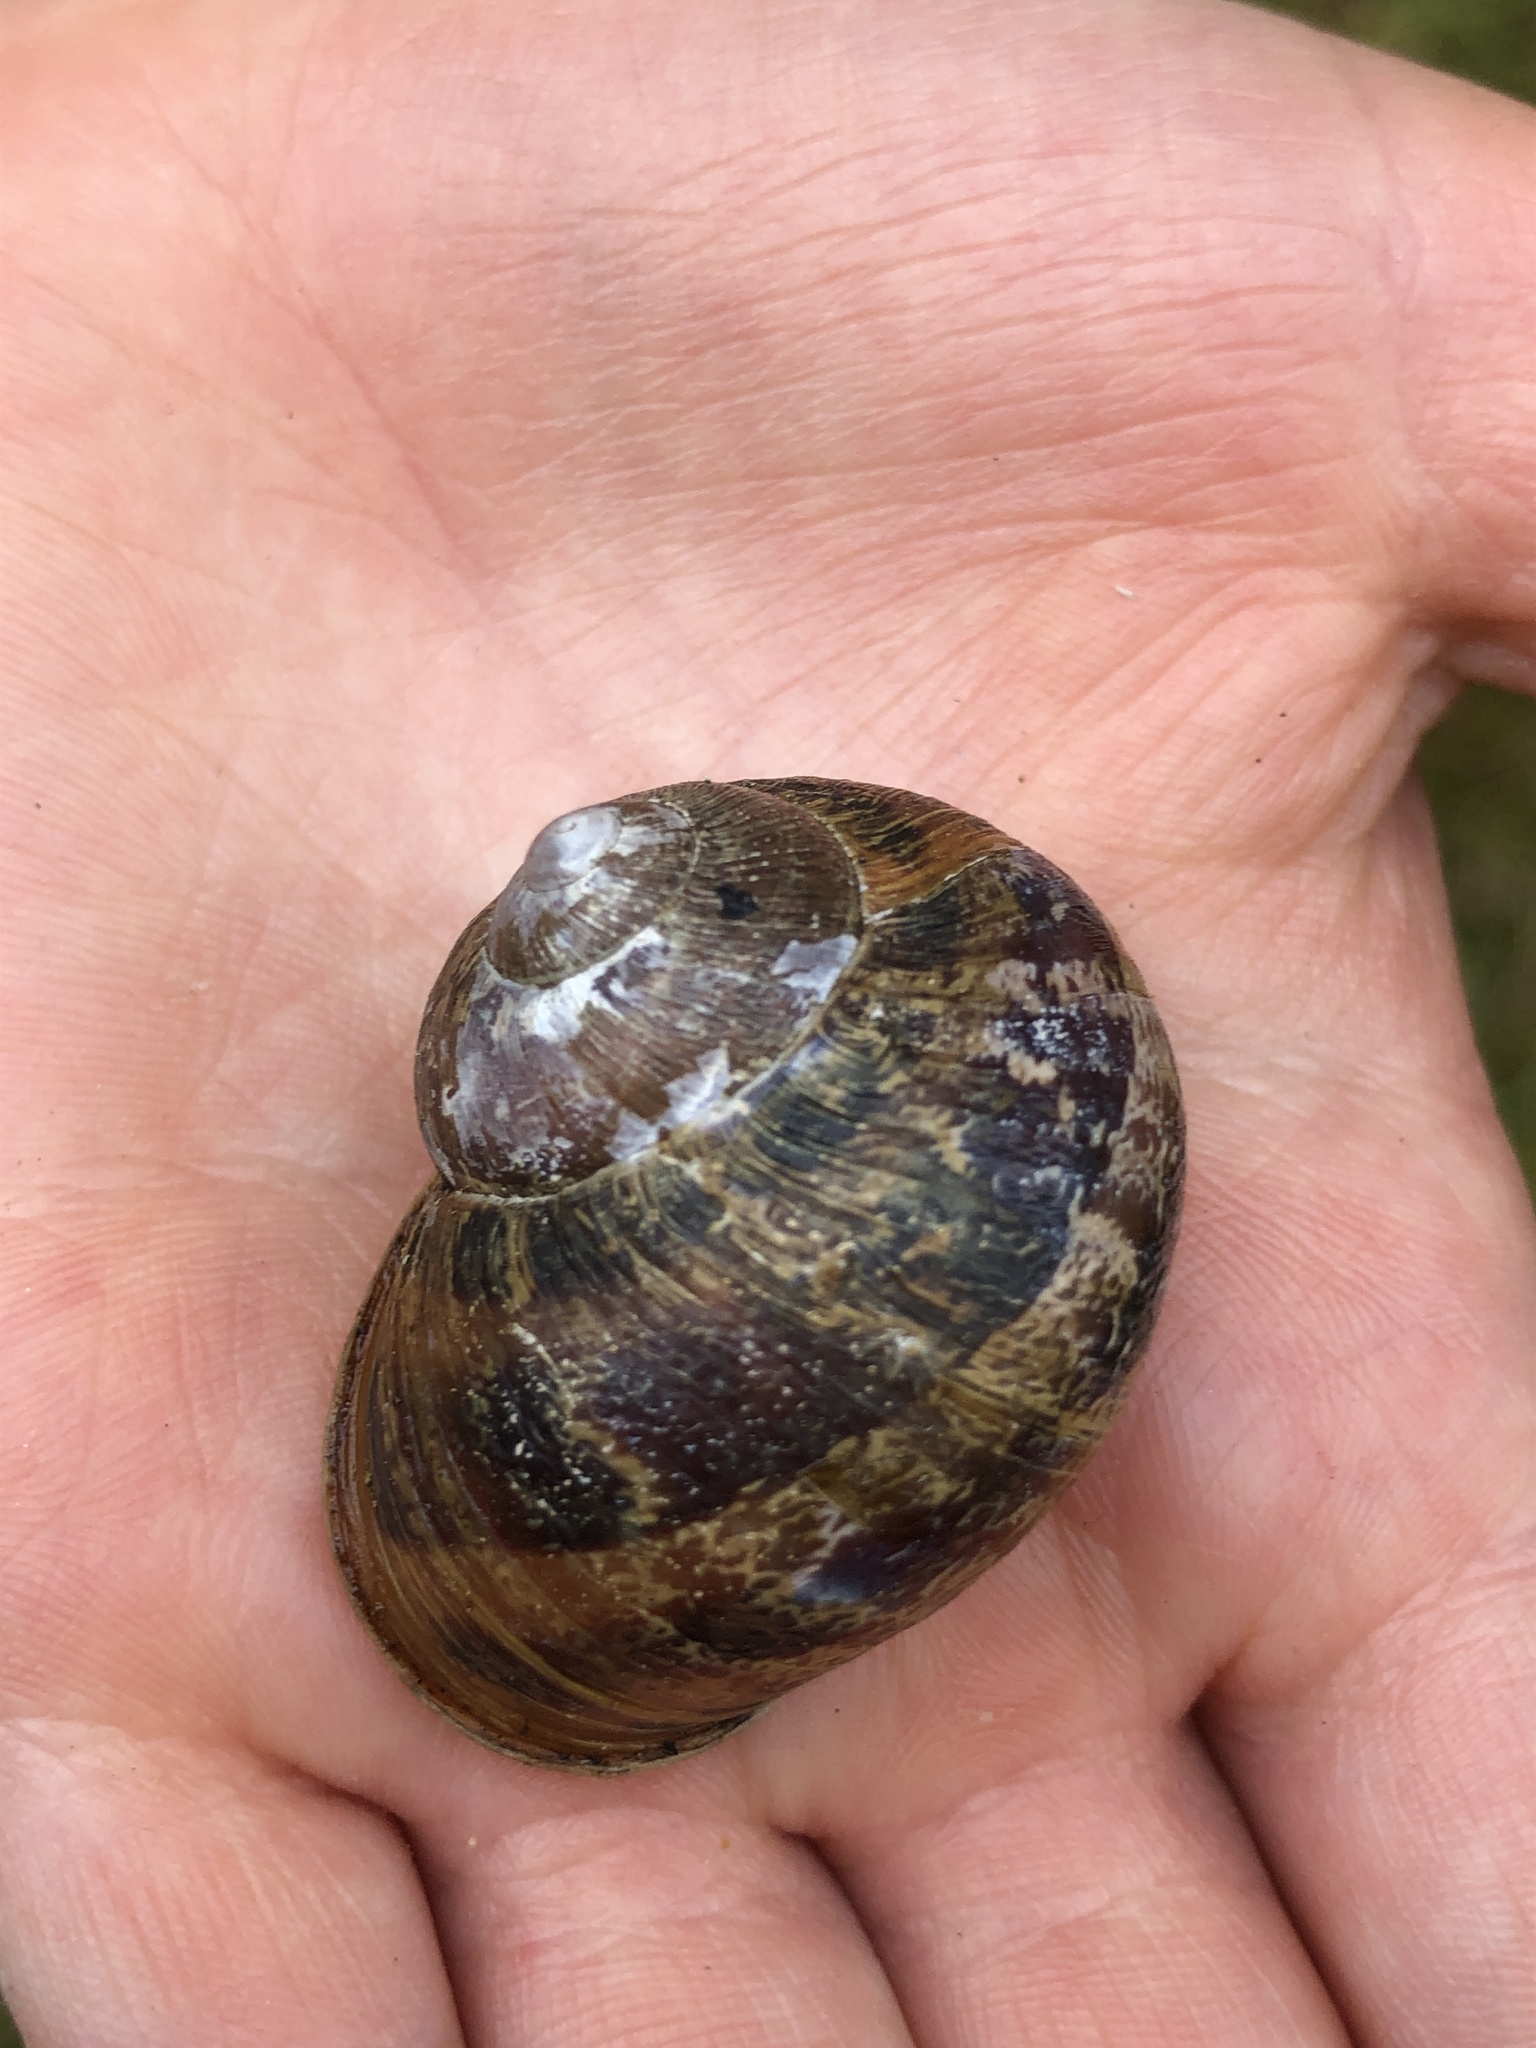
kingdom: Animalia
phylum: Mollusca
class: Gastropoda
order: Stylommatophora
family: Helicidae
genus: Cornu
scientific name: Cornu aspersum
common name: Brown garden snail
